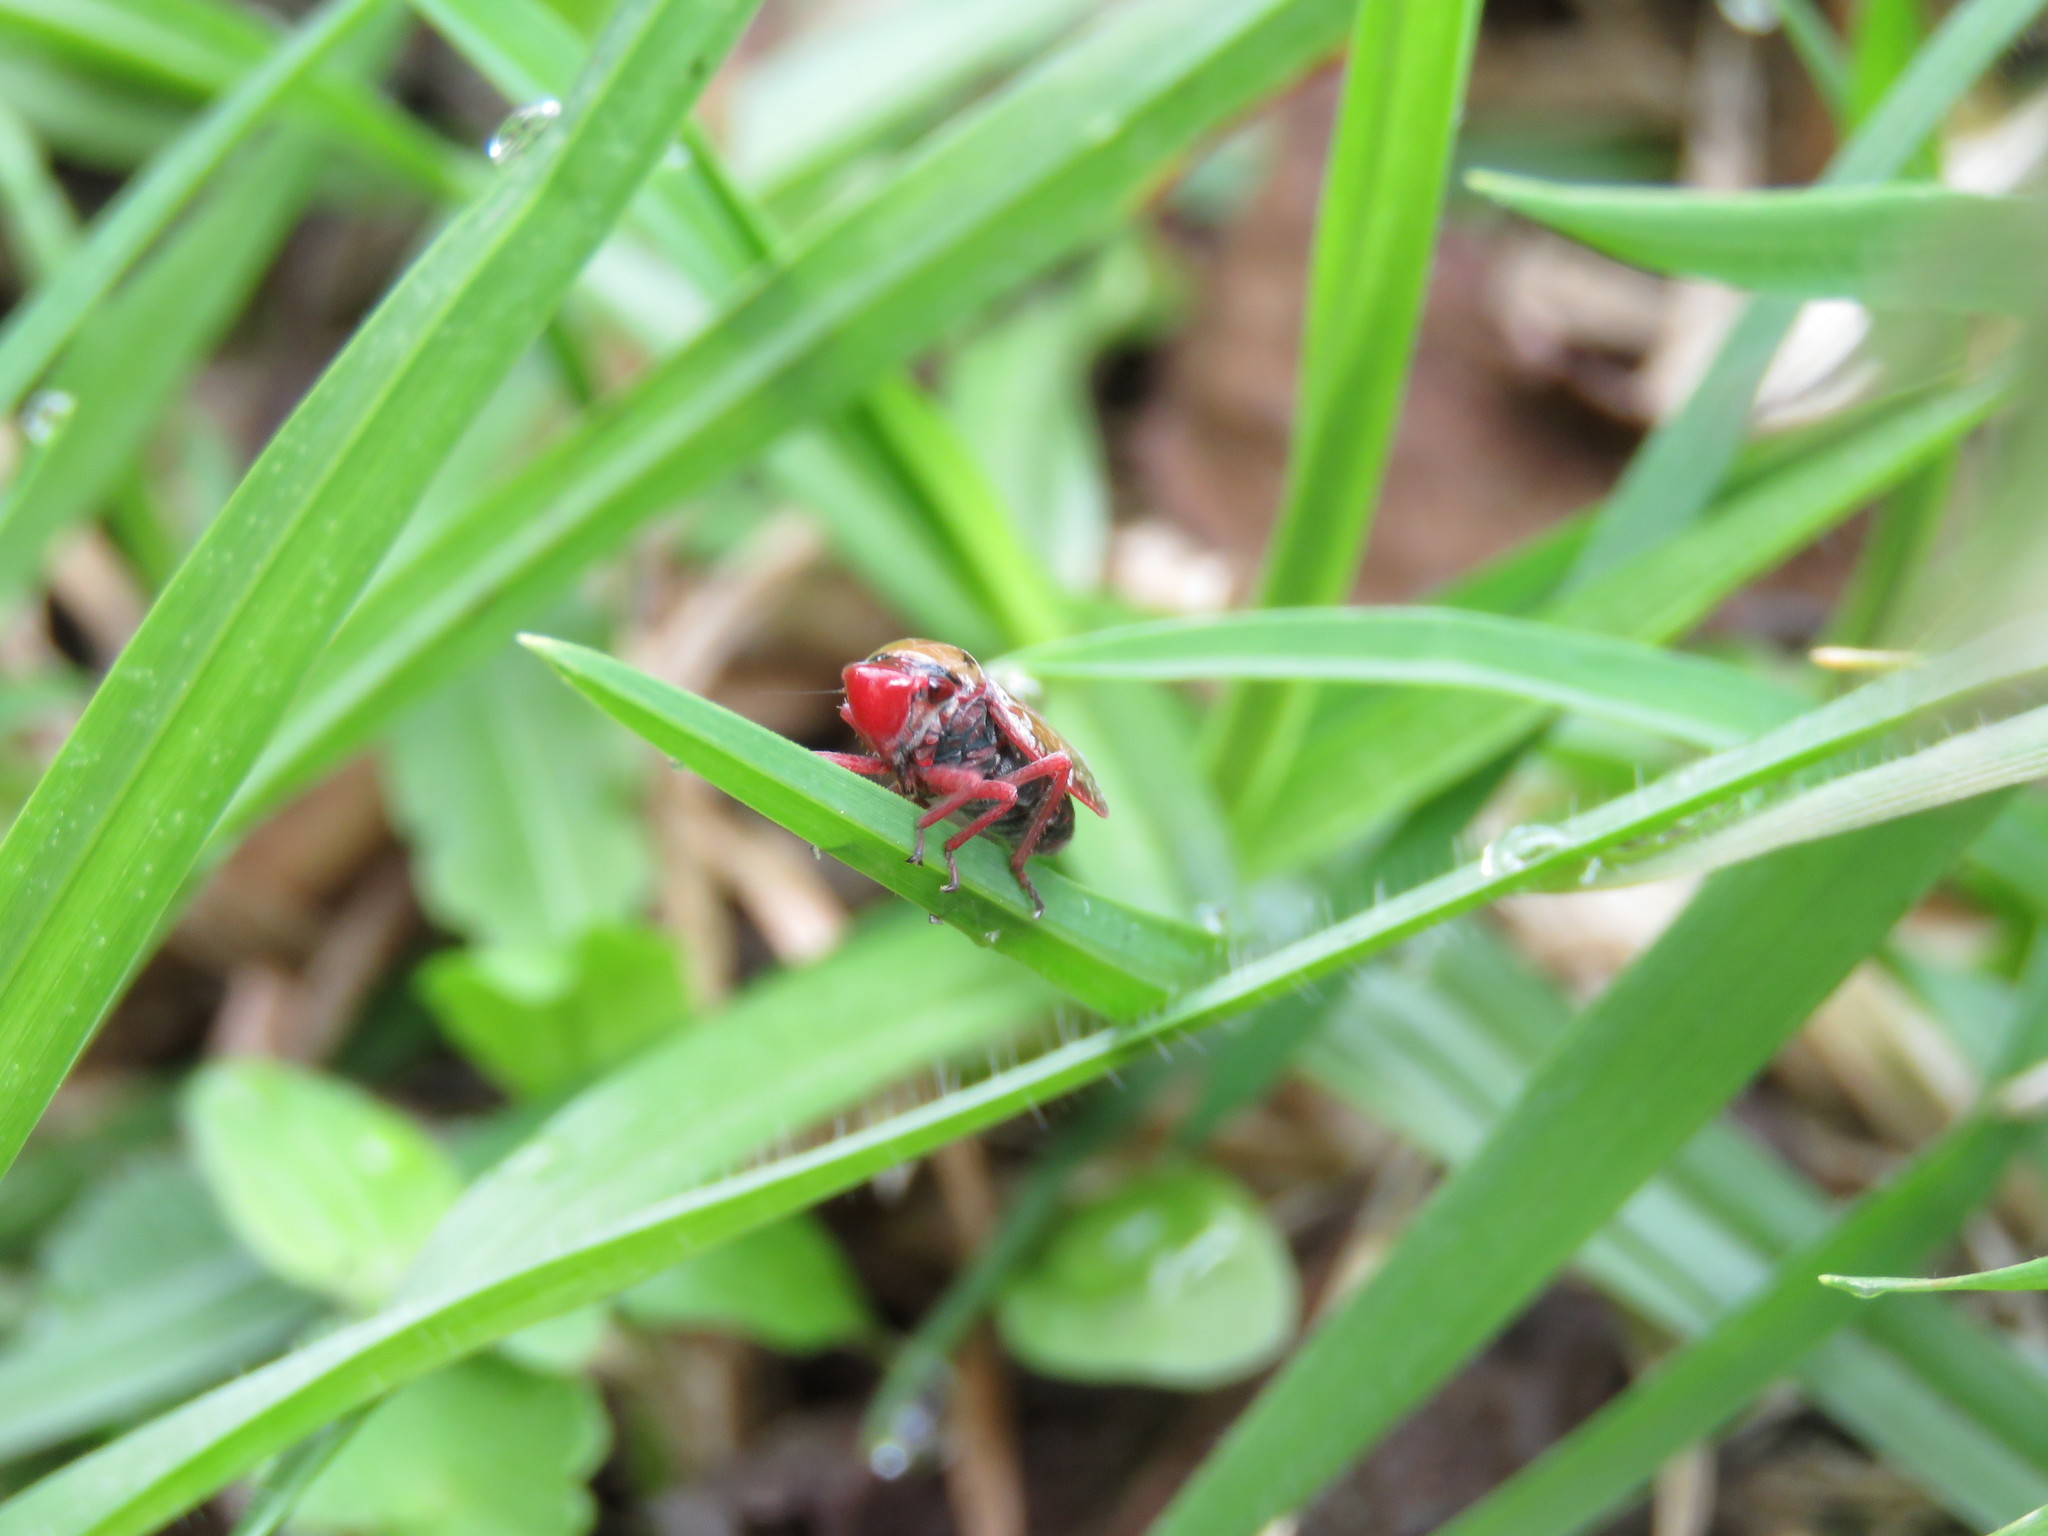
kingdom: Animalia
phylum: Arthropoda
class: Insecta
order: Hemiptera
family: Cicadellidae
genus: Paracatua
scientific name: Paracatua rubrolimbata
